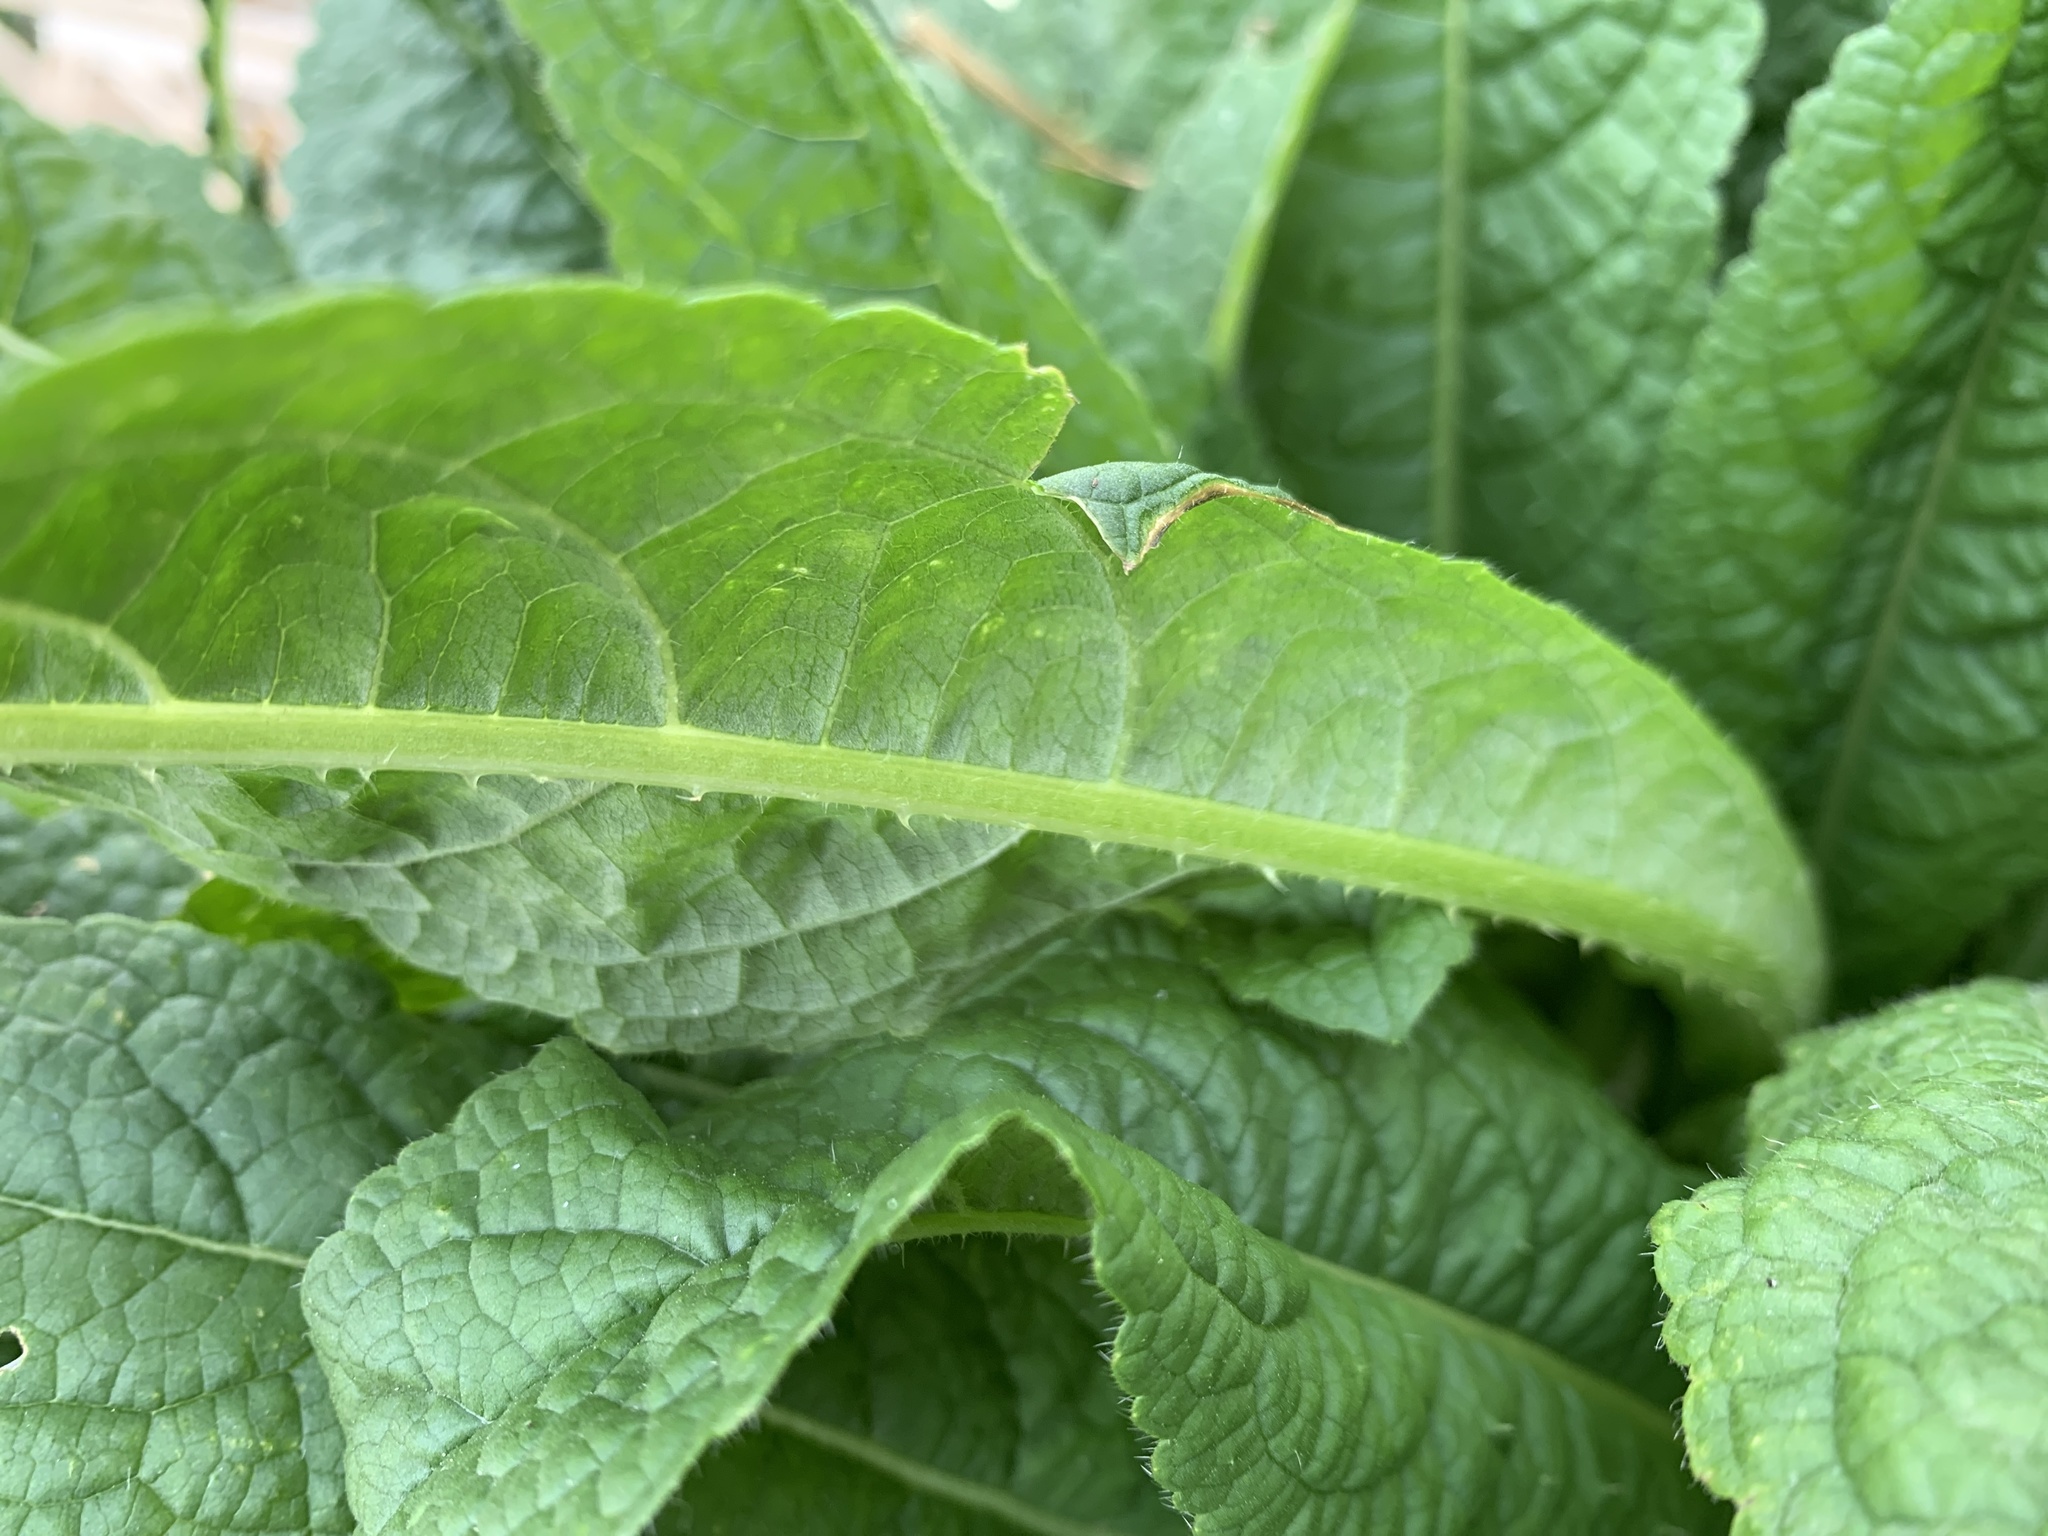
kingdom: Plantae
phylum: Tracheophyta
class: Magnoliopsida
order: Dipsacales
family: Caprifoliaceae
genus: Dipsacus
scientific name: Dipsacus fullonum
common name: Teasel
